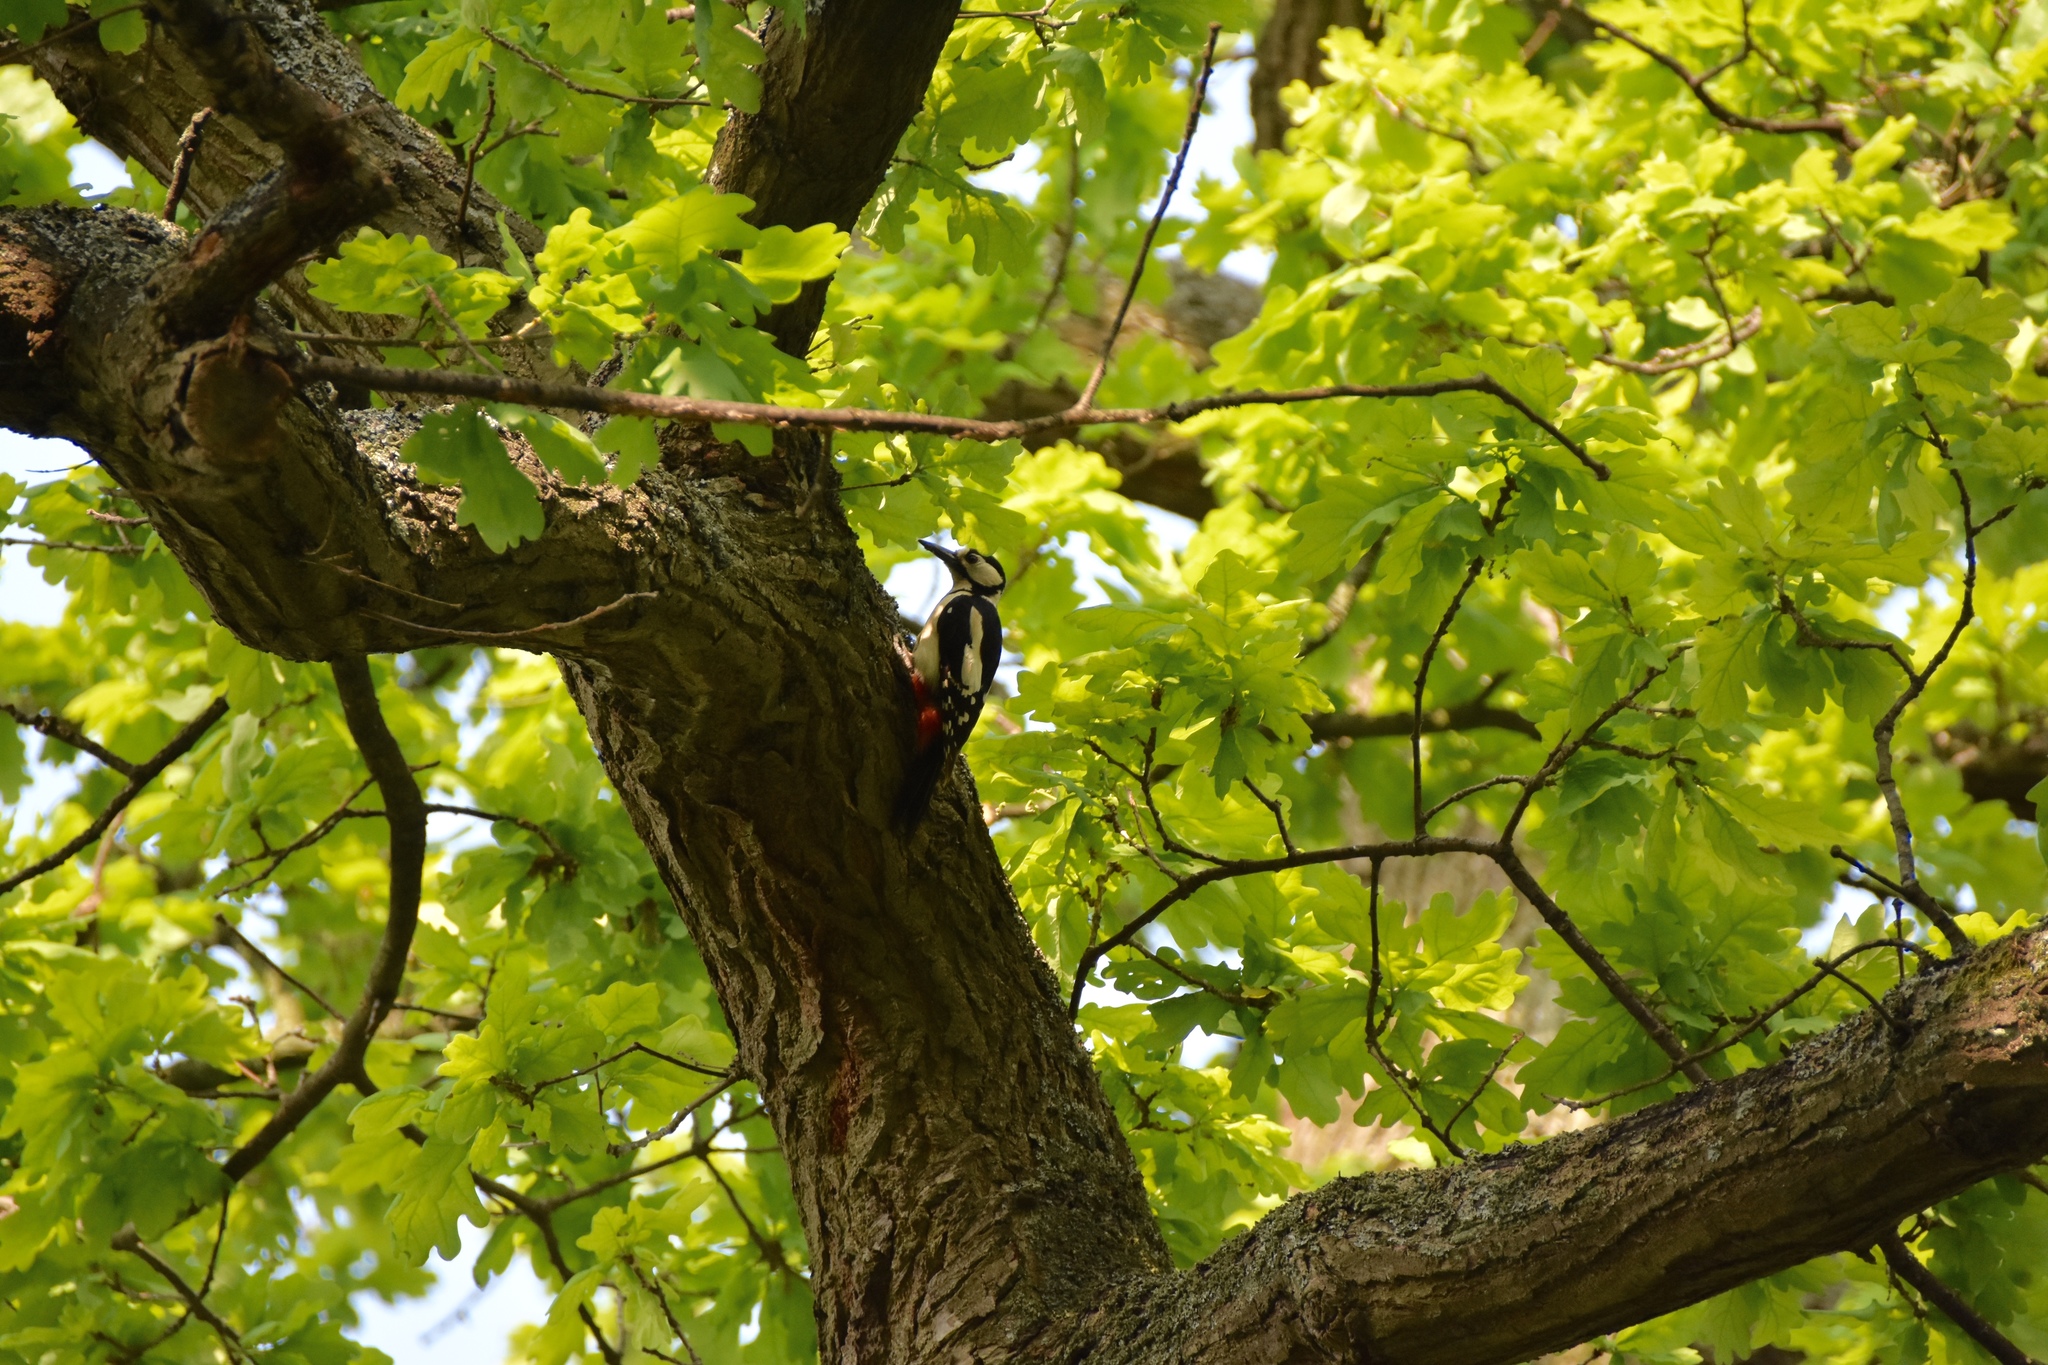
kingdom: Animalia
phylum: Chordata
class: Aves
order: Piciformes
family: Picidae
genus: Dendrocopos
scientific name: Dendrocopos major
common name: Great spotted woodpecker
